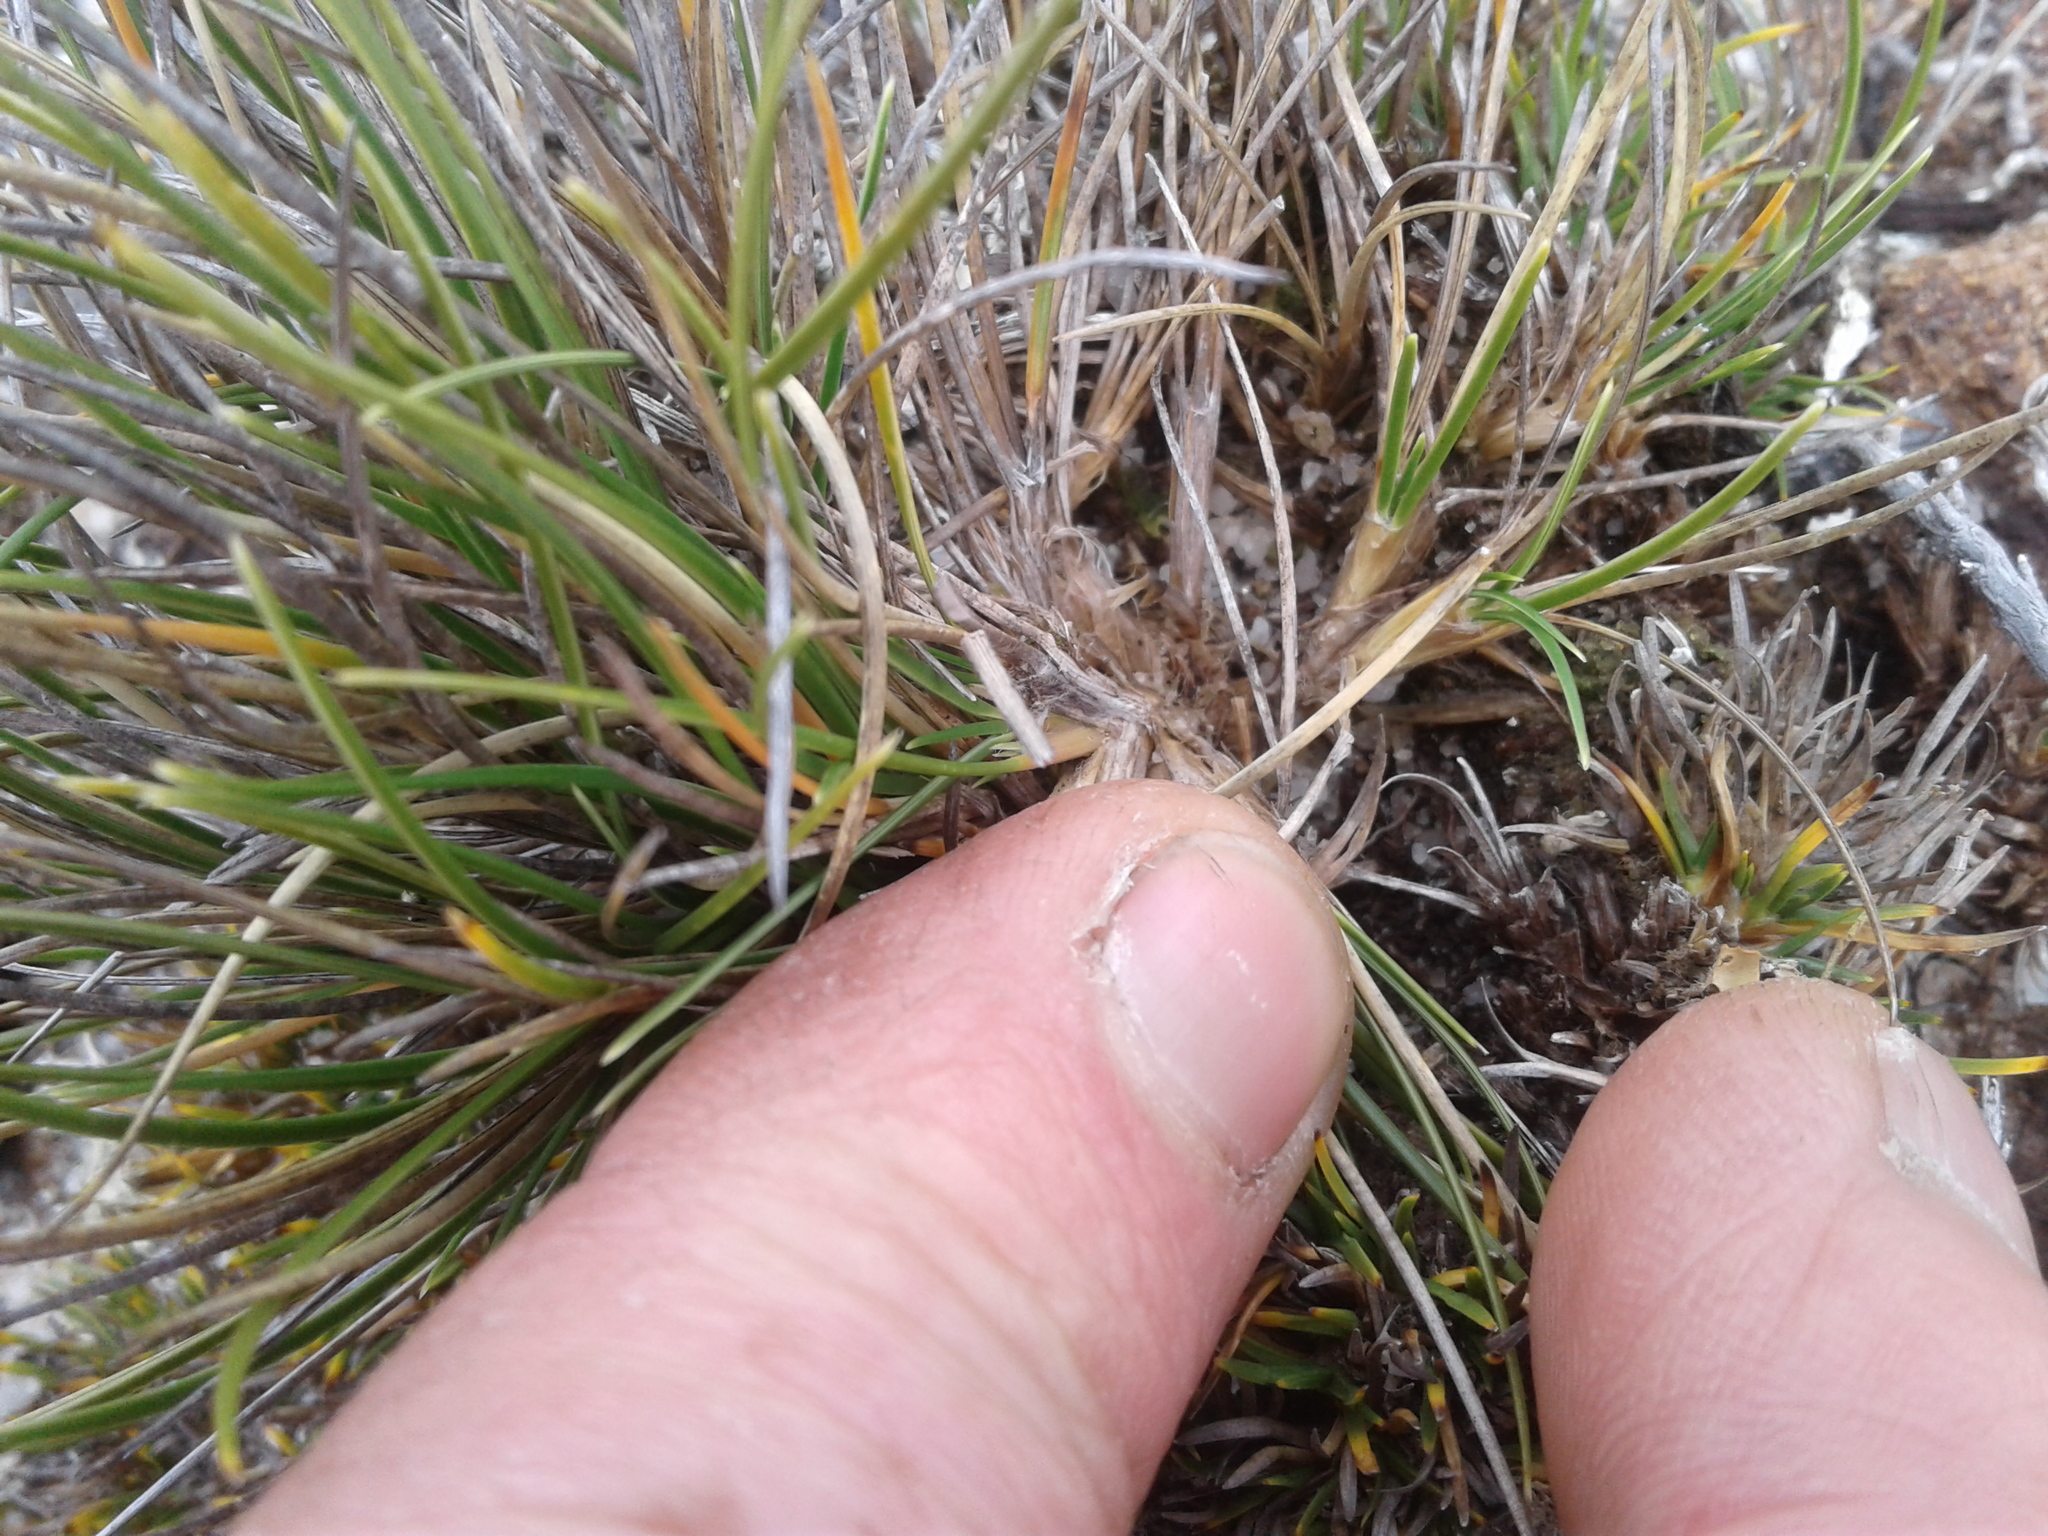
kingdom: Plantae
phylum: Tracheophyta
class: Liliopsida
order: Poales
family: Poaceae
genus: Chionochloa
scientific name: Chionochloa australis
